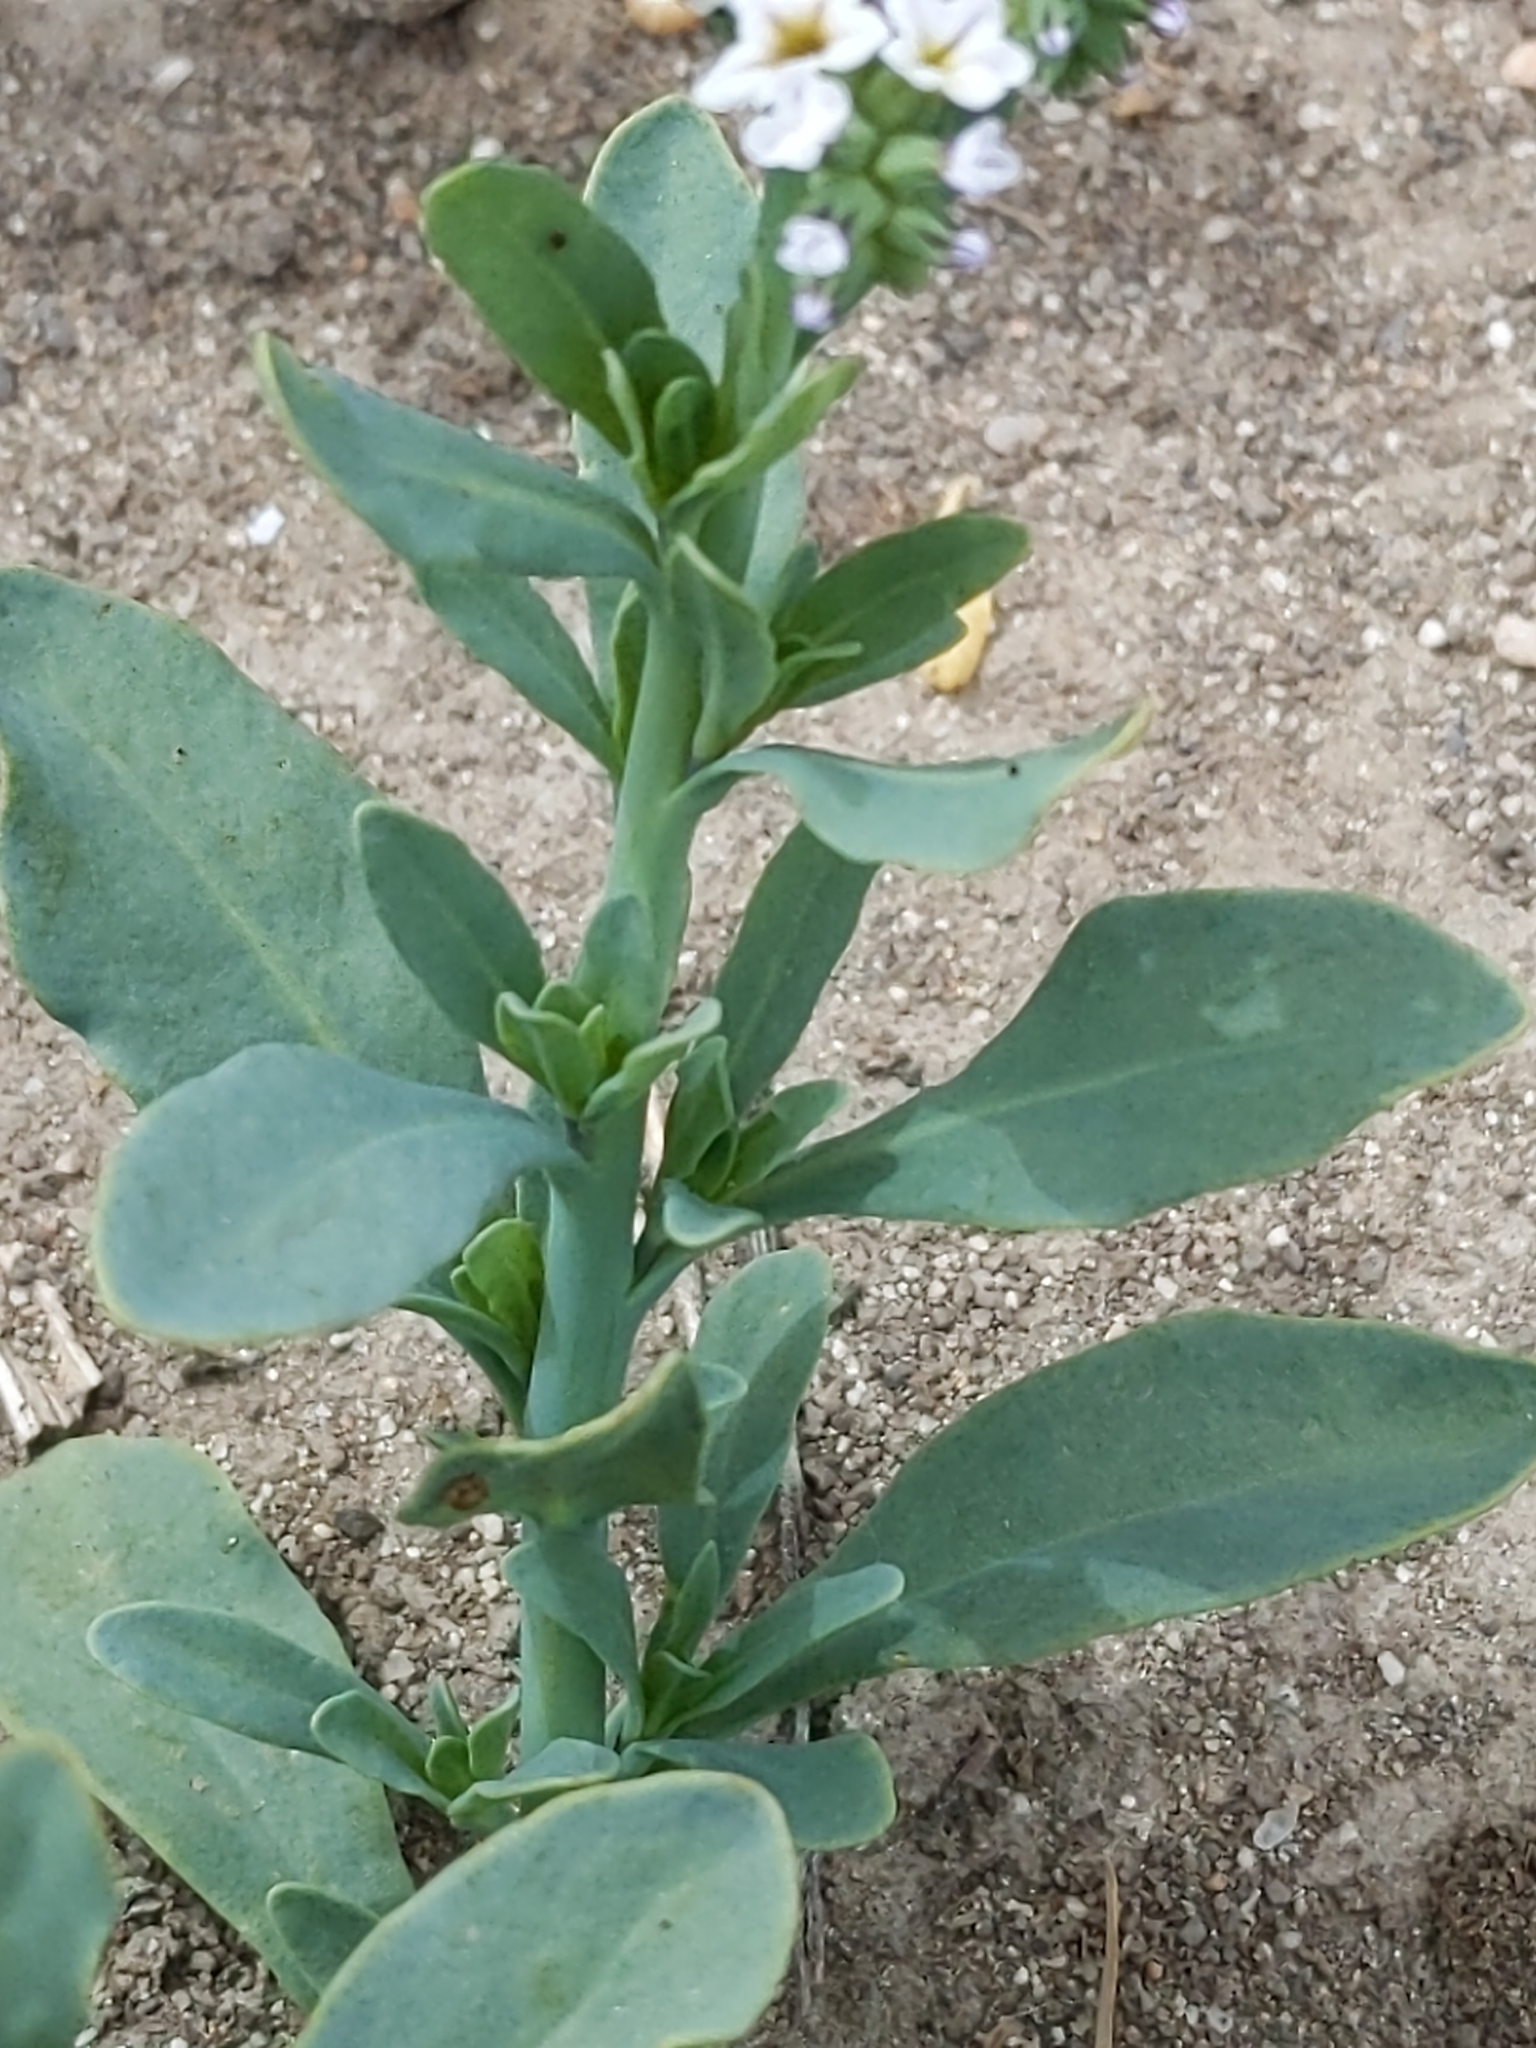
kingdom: Plantae
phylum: Tracheophyta
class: Magnoliopsida
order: Boraginales
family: Heliotropiaceae
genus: Heliotropium
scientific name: Heliotropium curassavicum
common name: Seaside heliotrope
